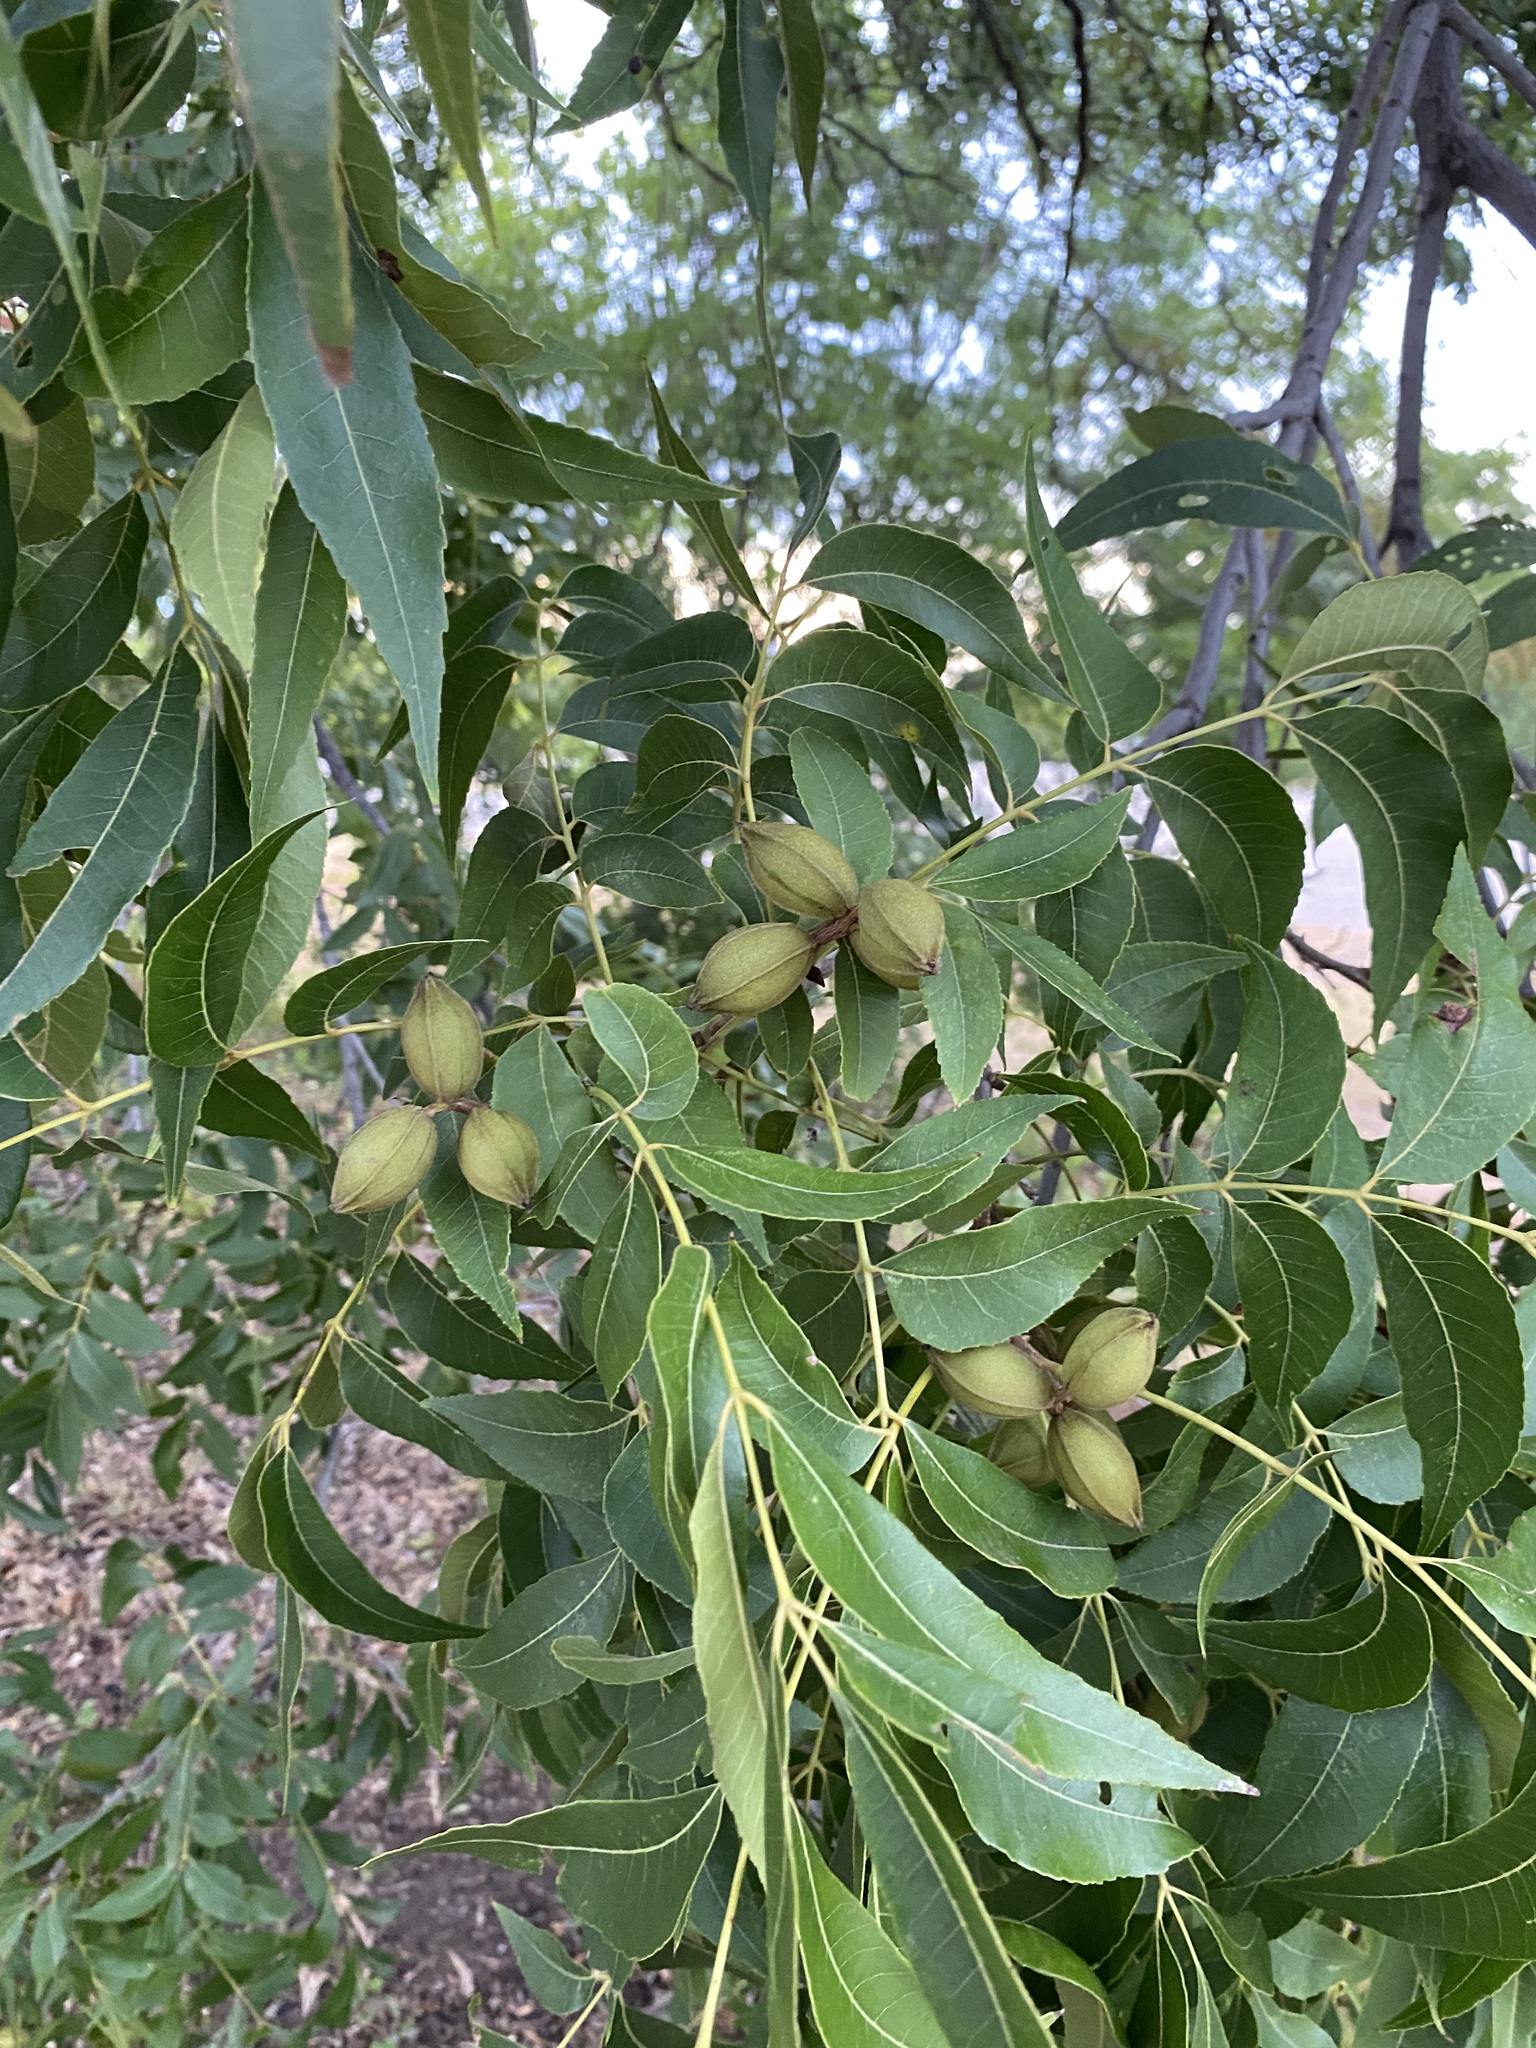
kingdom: Plantae
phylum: Tracheophyta
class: Magnoliopsida
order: Fagales
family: Juglandaceae
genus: Carya
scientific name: Carya illinoinensis
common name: Pecan
